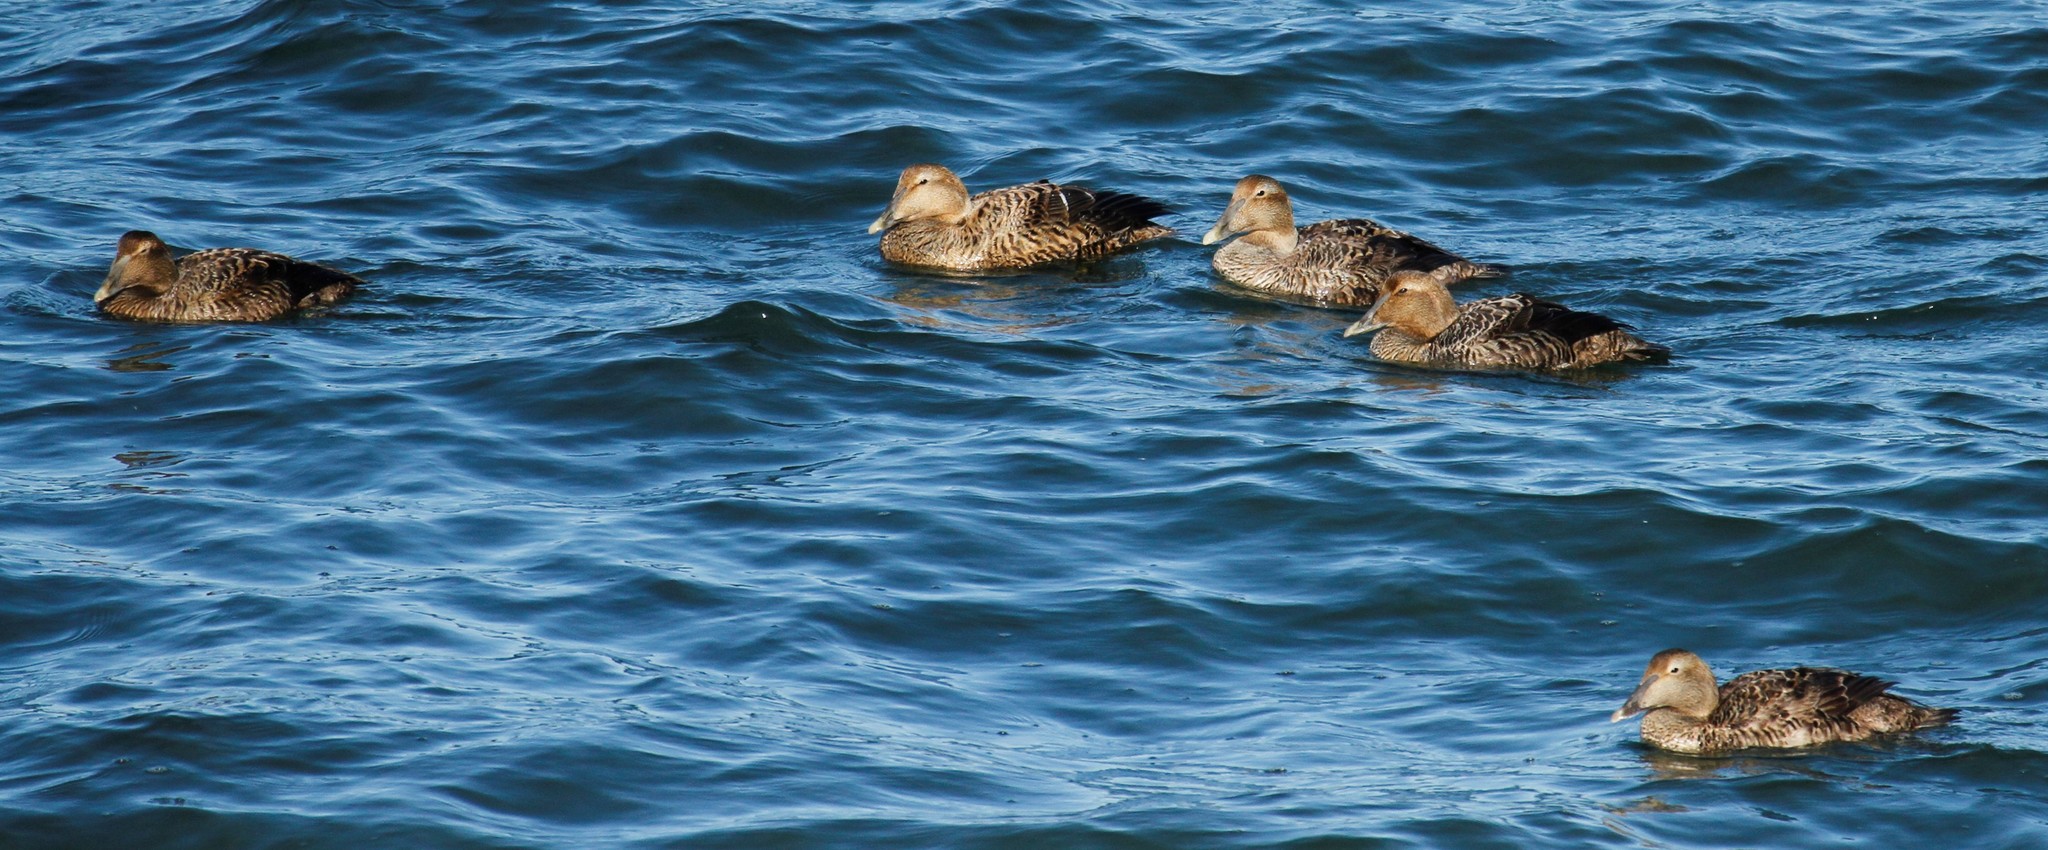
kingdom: Animalia
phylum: Chordata
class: Aves
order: Anseriformes
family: Anatidae
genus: Somateria
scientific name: Somateria mollissima
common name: Common eider
